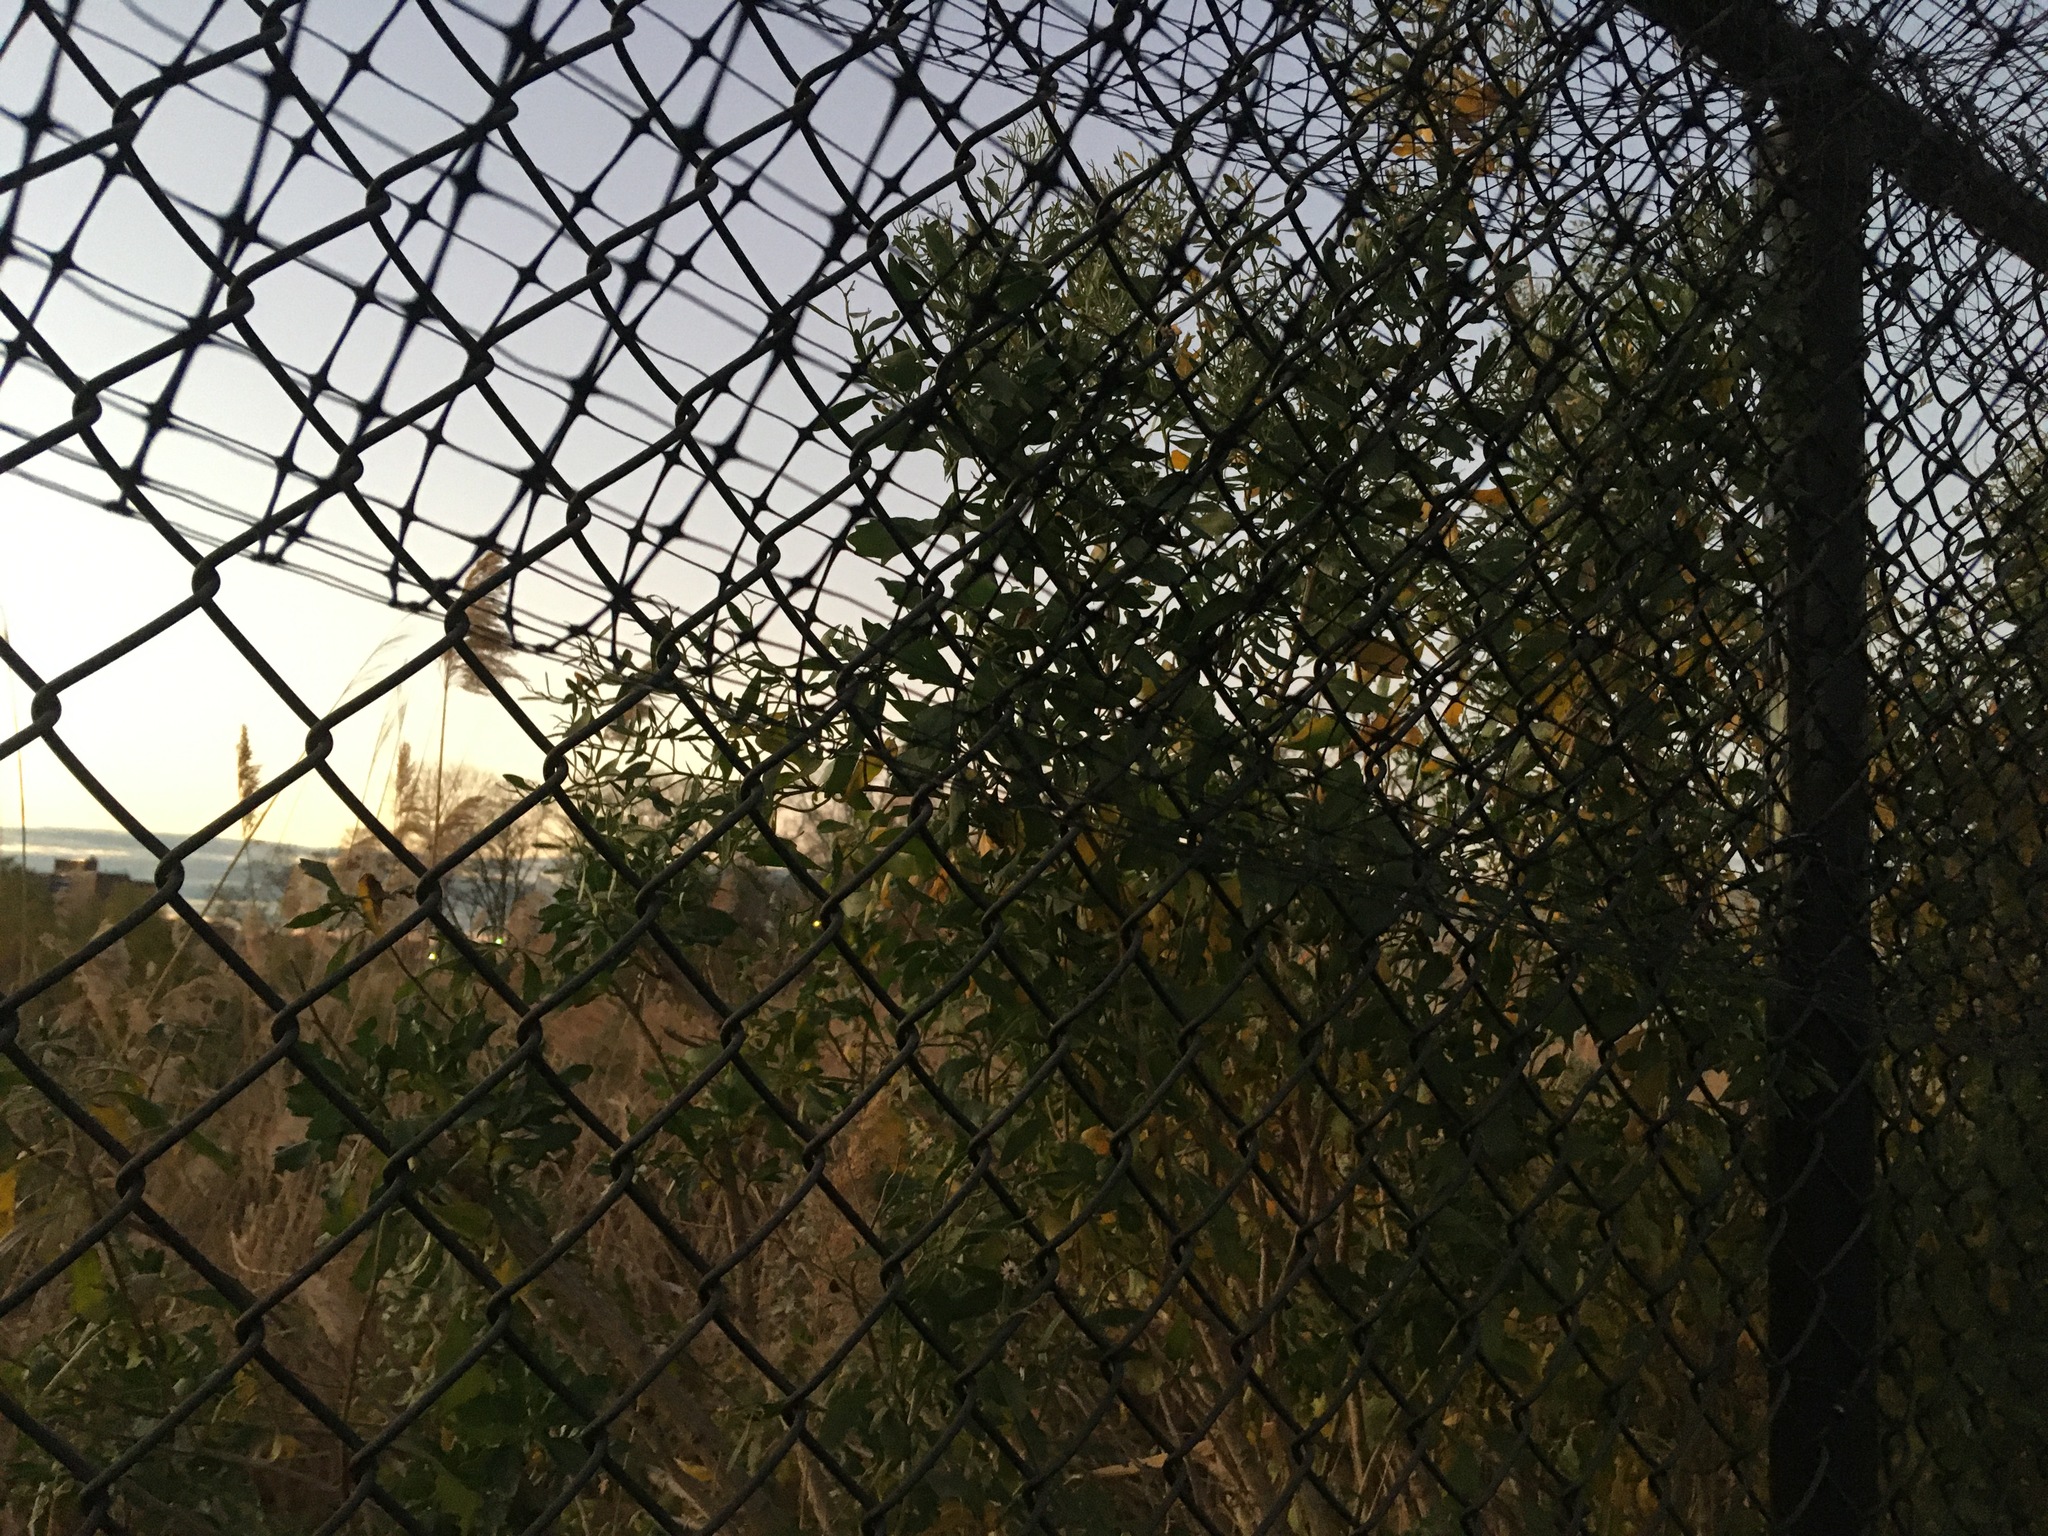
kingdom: Plantae
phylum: Tracheophyta
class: Magnoliopsida
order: Asterales
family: Asteraceae
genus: Baccharis
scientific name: Baccharis halimifolia
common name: Eastern baccharis
